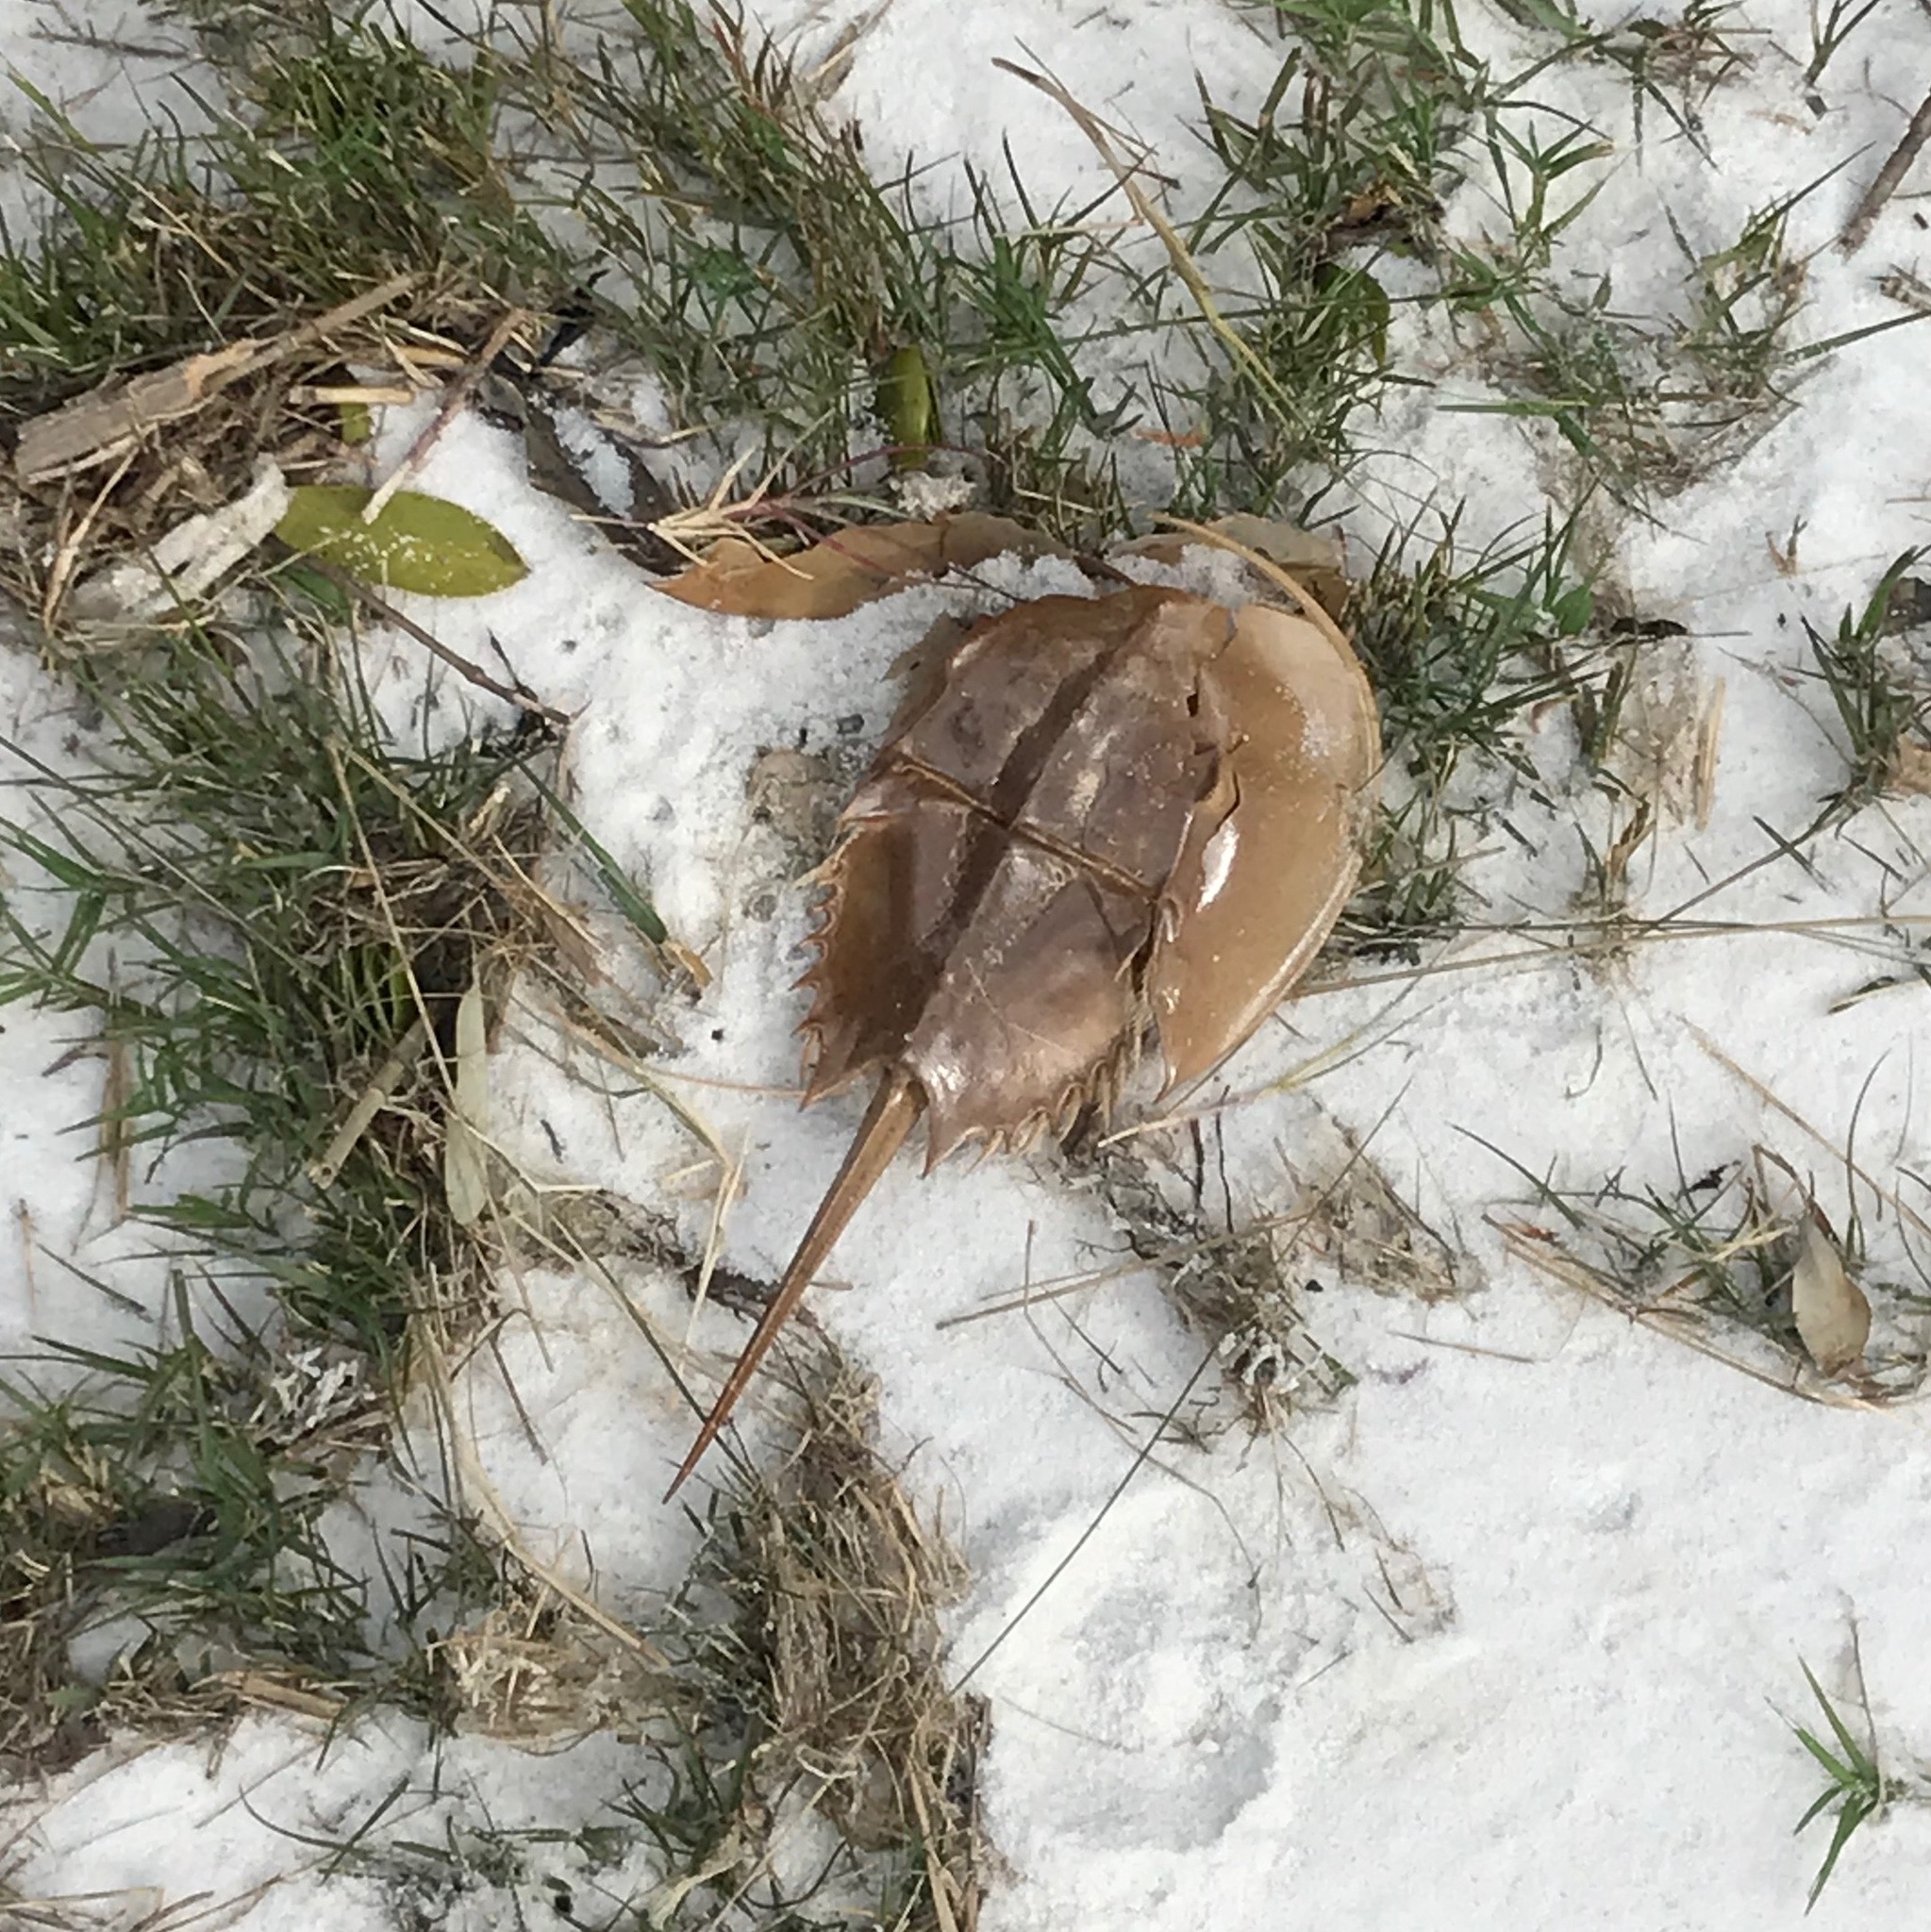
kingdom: Animalia
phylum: Arthropoda
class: Merostomata
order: Xiphosurida
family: Limulidae
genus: Limulus
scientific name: Limulus polyphemus
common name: Horseshoe crab
